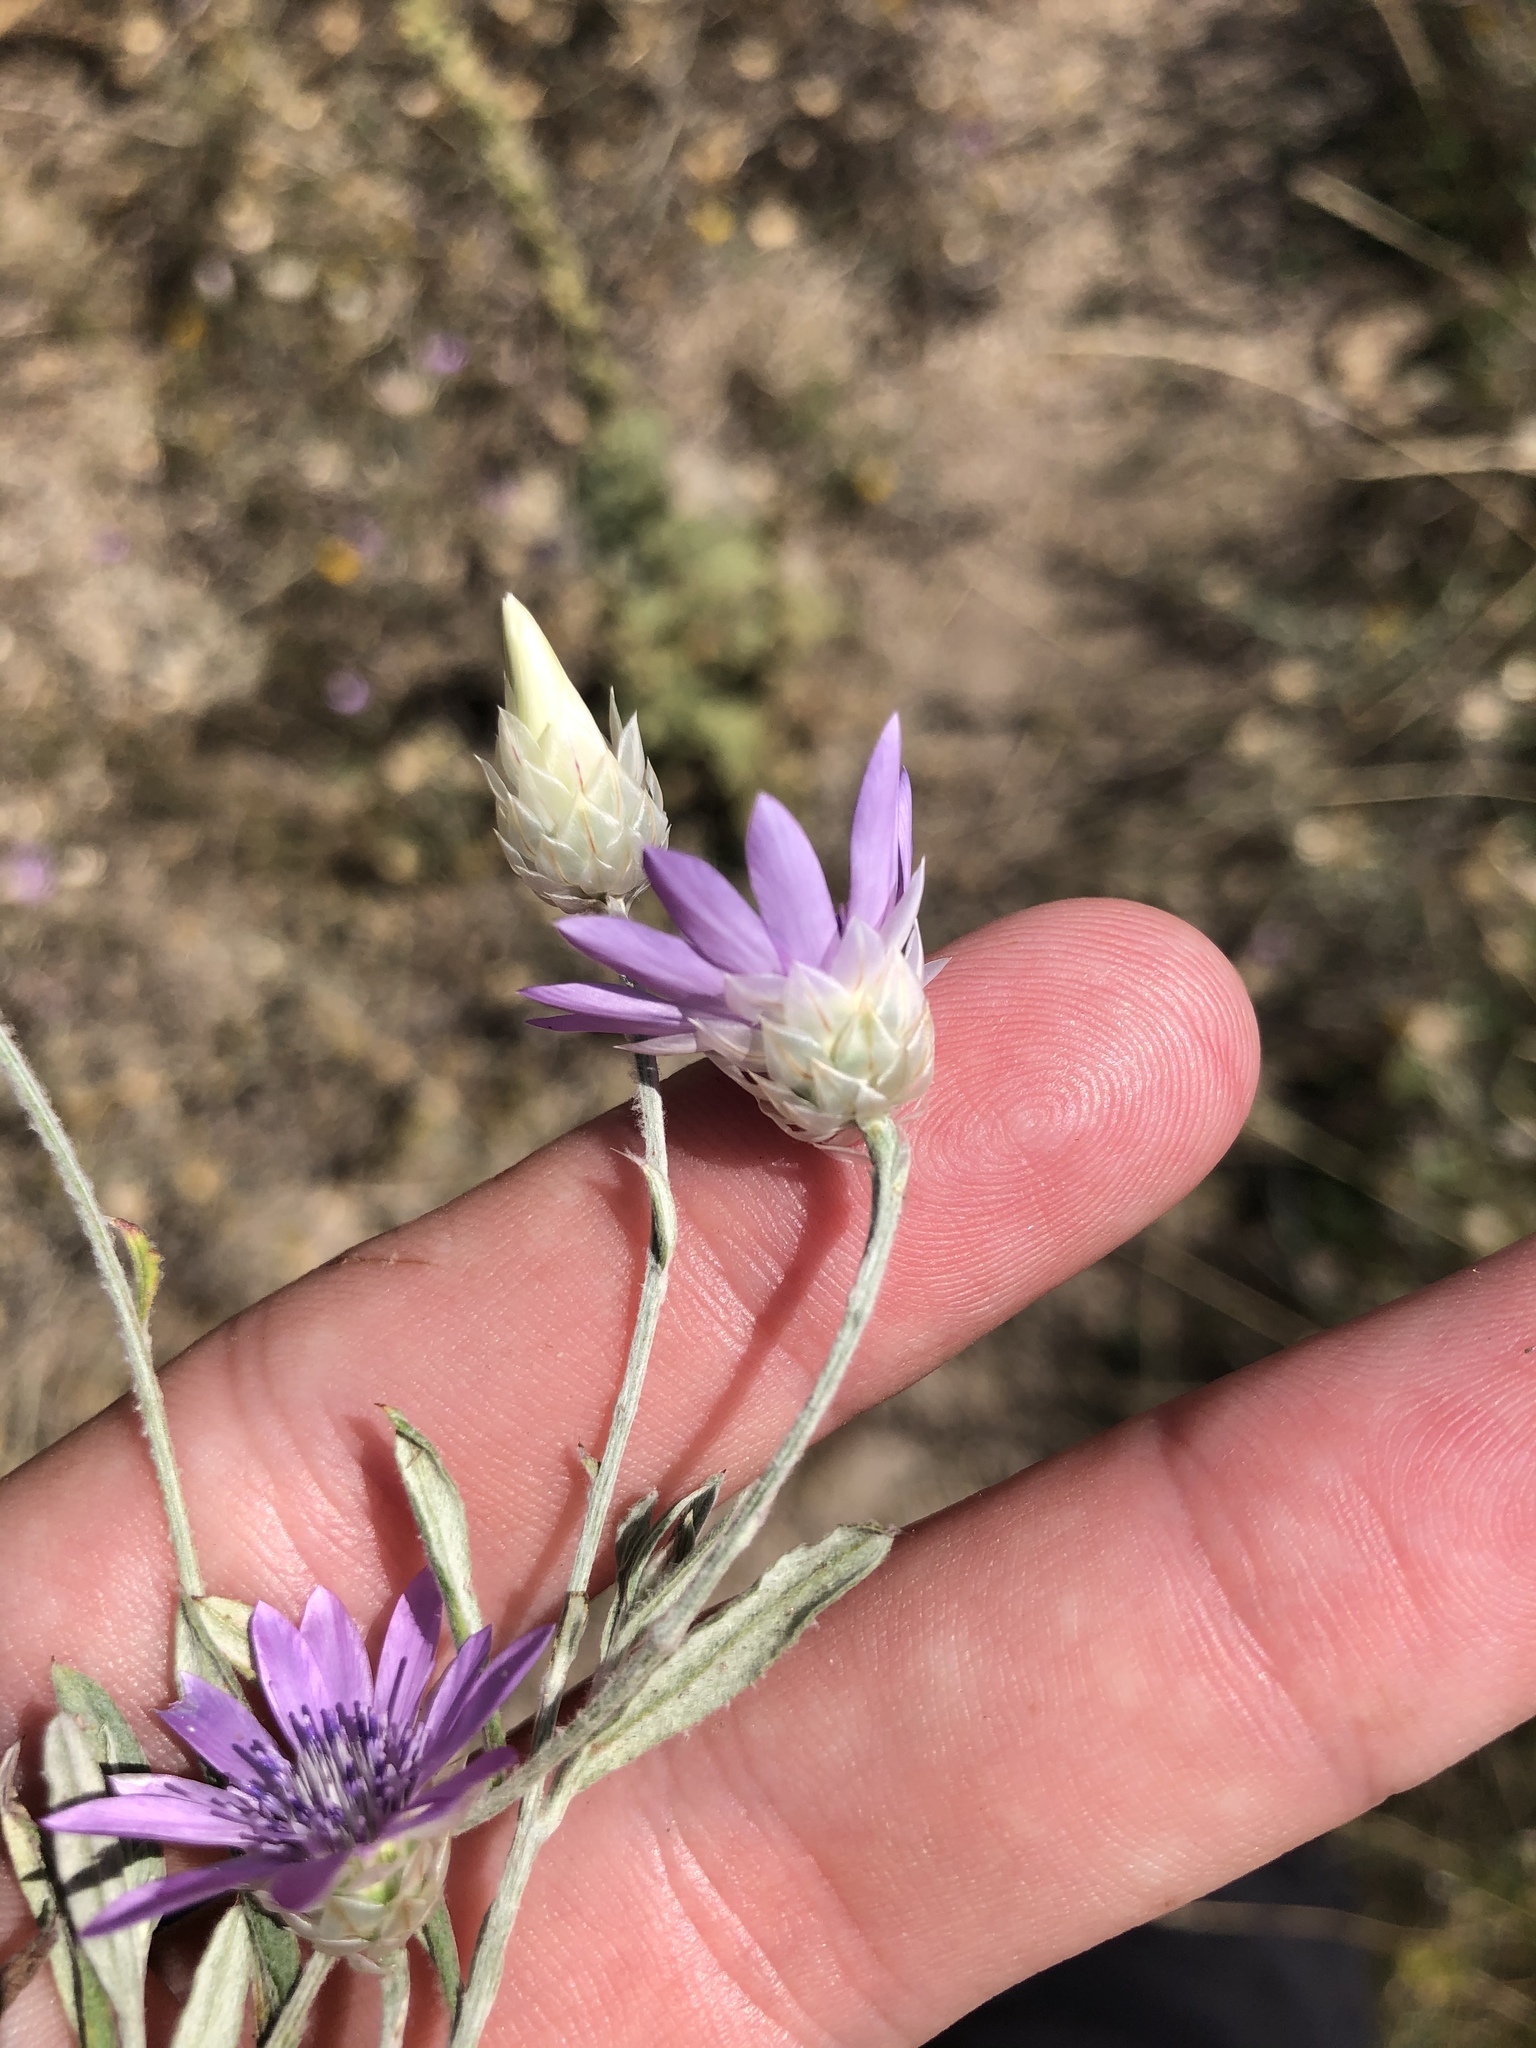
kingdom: Plantae
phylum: Tracheophyta
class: Magnoliopsida
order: Asterales
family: Asteraceae
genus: Xeranthemum
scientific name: Xeranthemum annuum
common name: Immortelle
